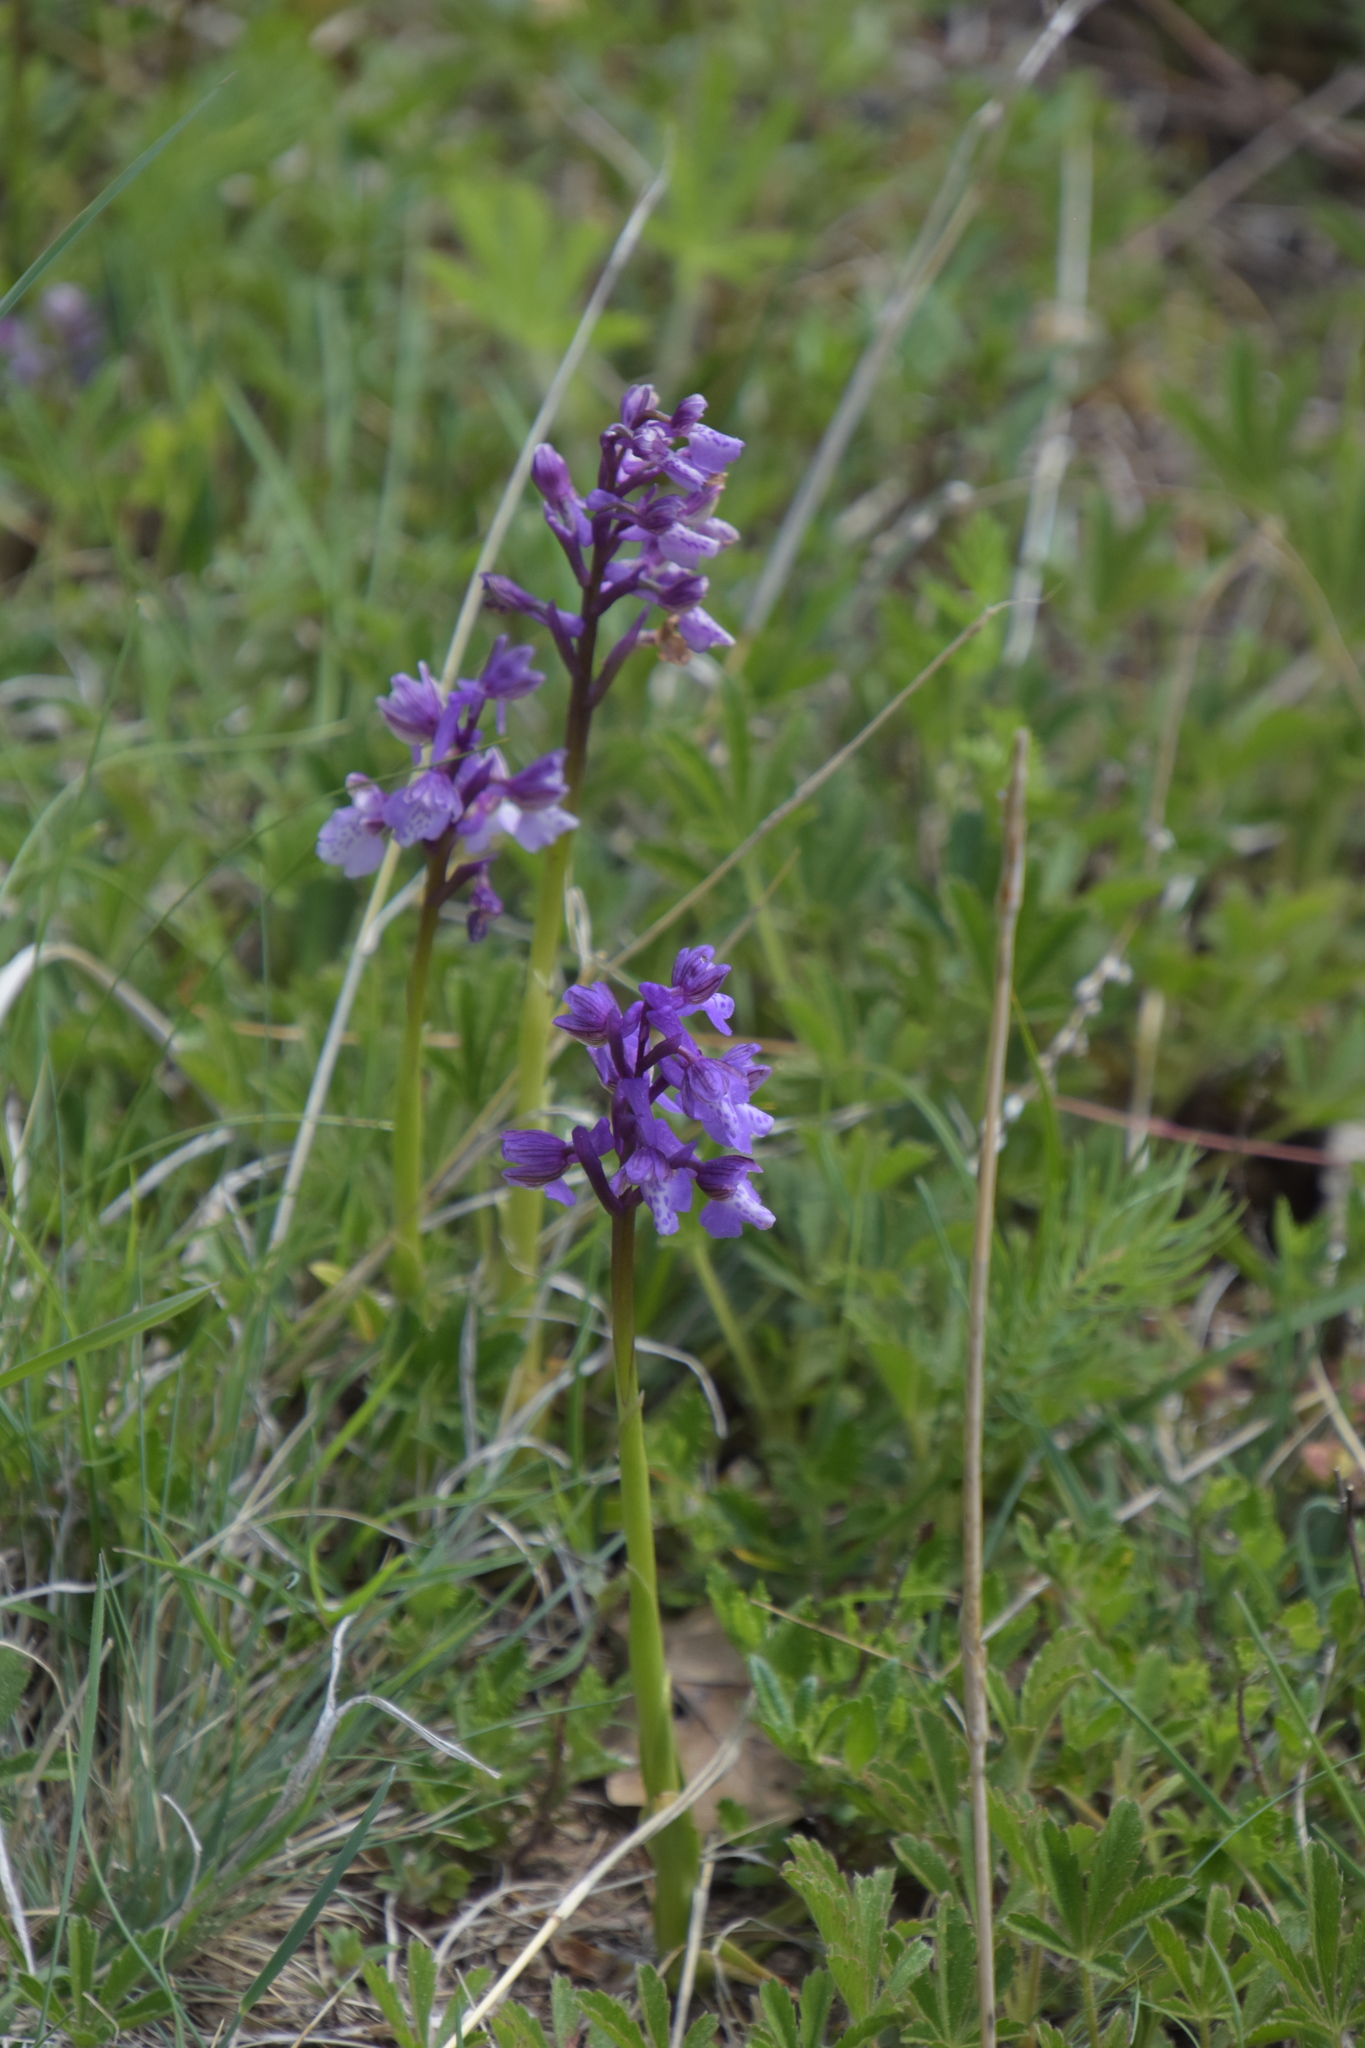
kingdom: Plantae
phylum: Tracheophyta
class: Liliopsida
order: Asparagales
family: Orchidaceae
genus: Anacamptis
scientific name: Anacamptis morio
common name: Green-winged orchid
